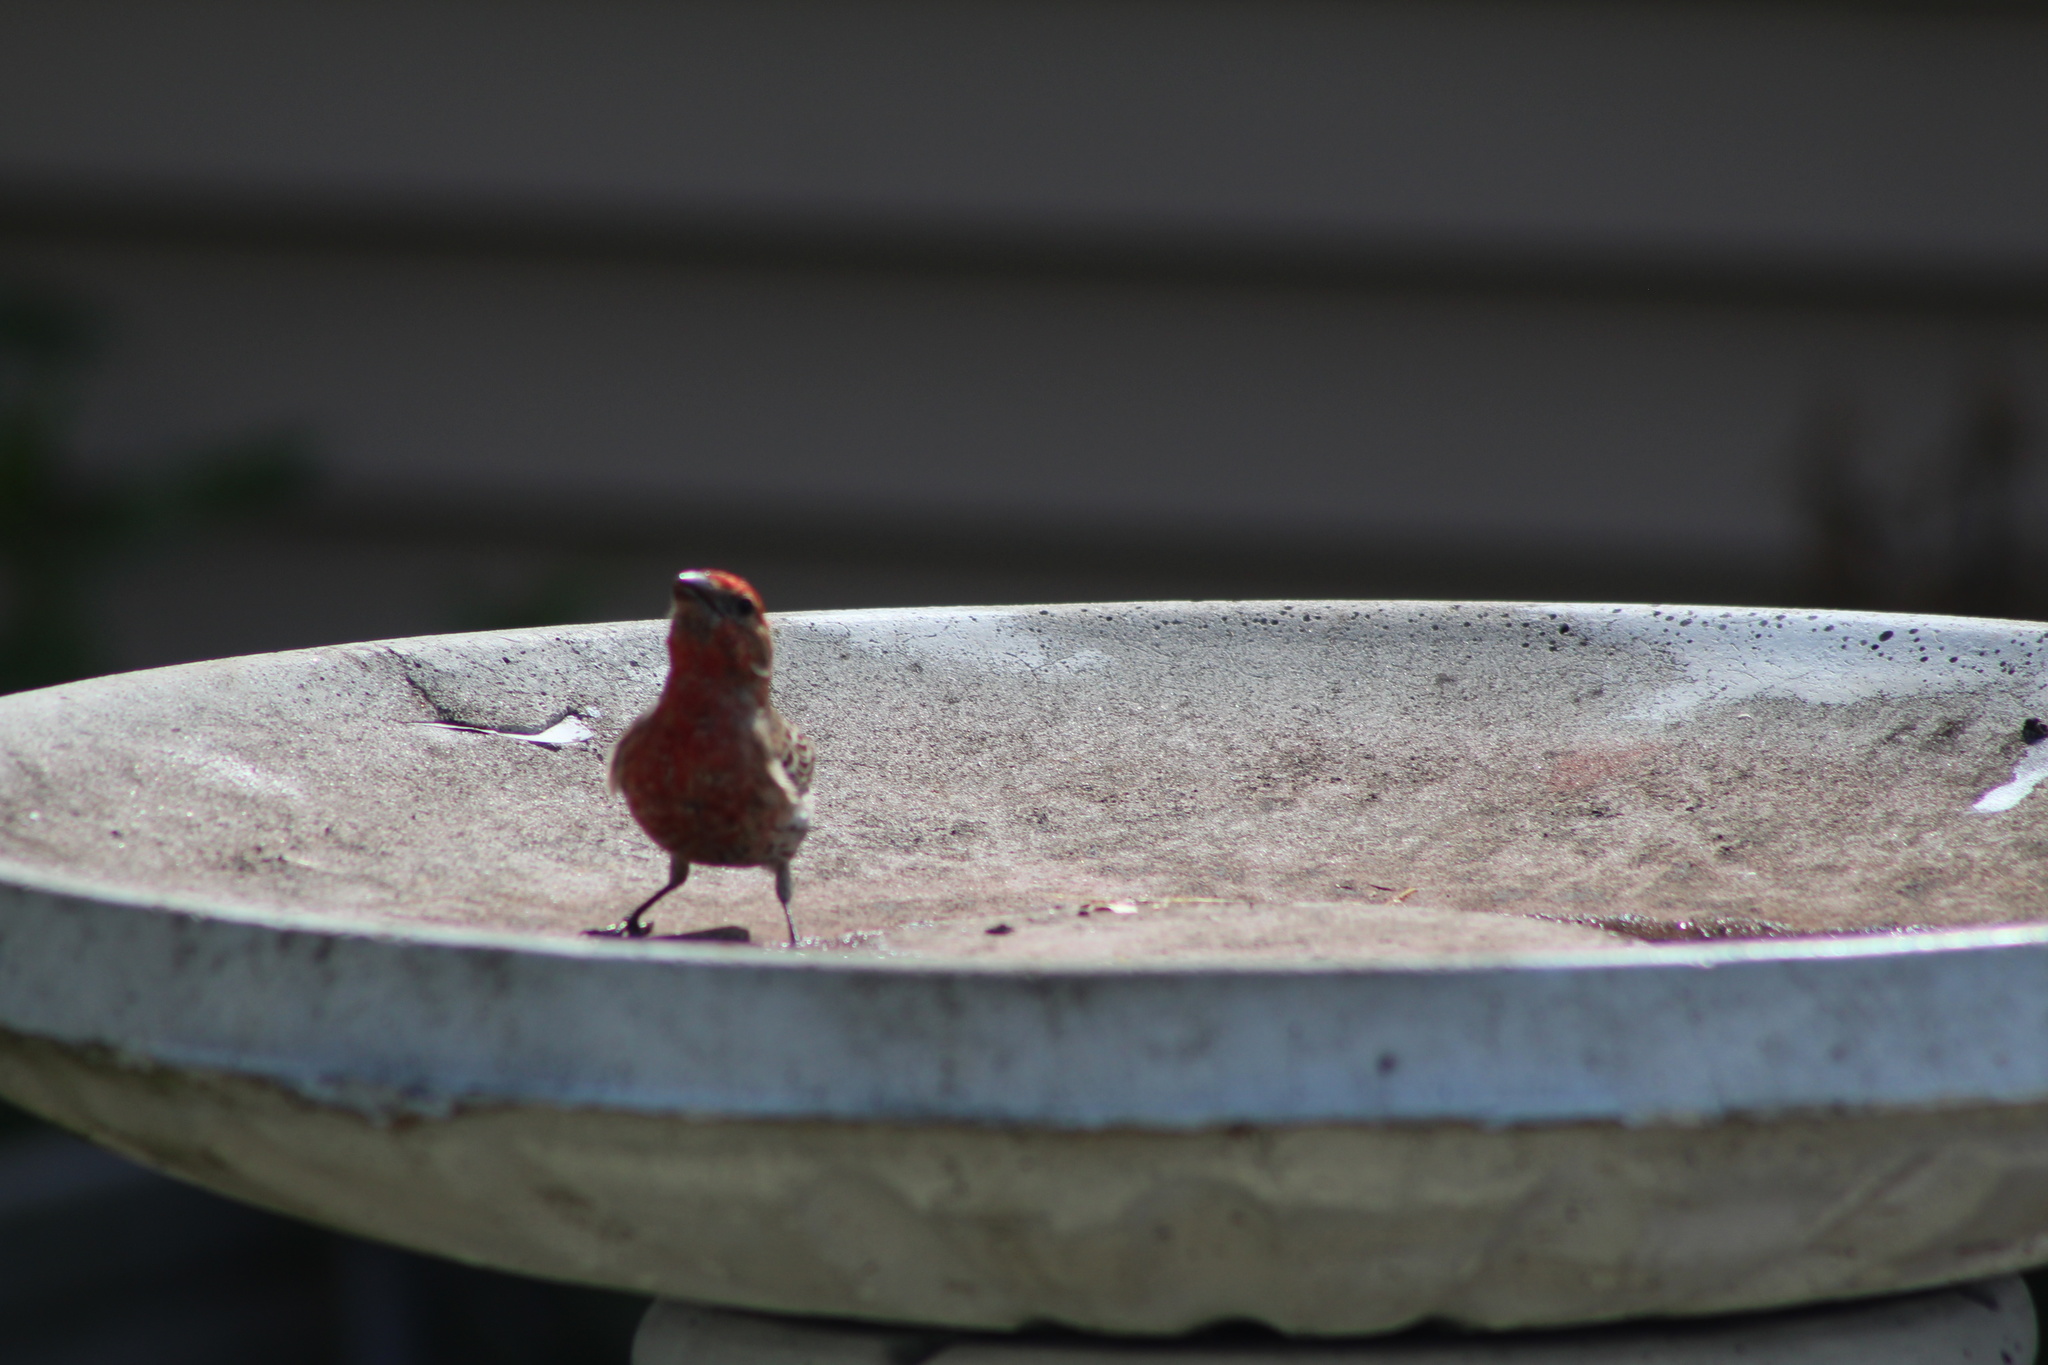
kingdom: Animalia
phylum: Chordata
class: Aves
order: Passeriformes
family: Fringillidae
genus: Haemorhous
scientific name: Haemorhous mexicanus
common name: House finch
